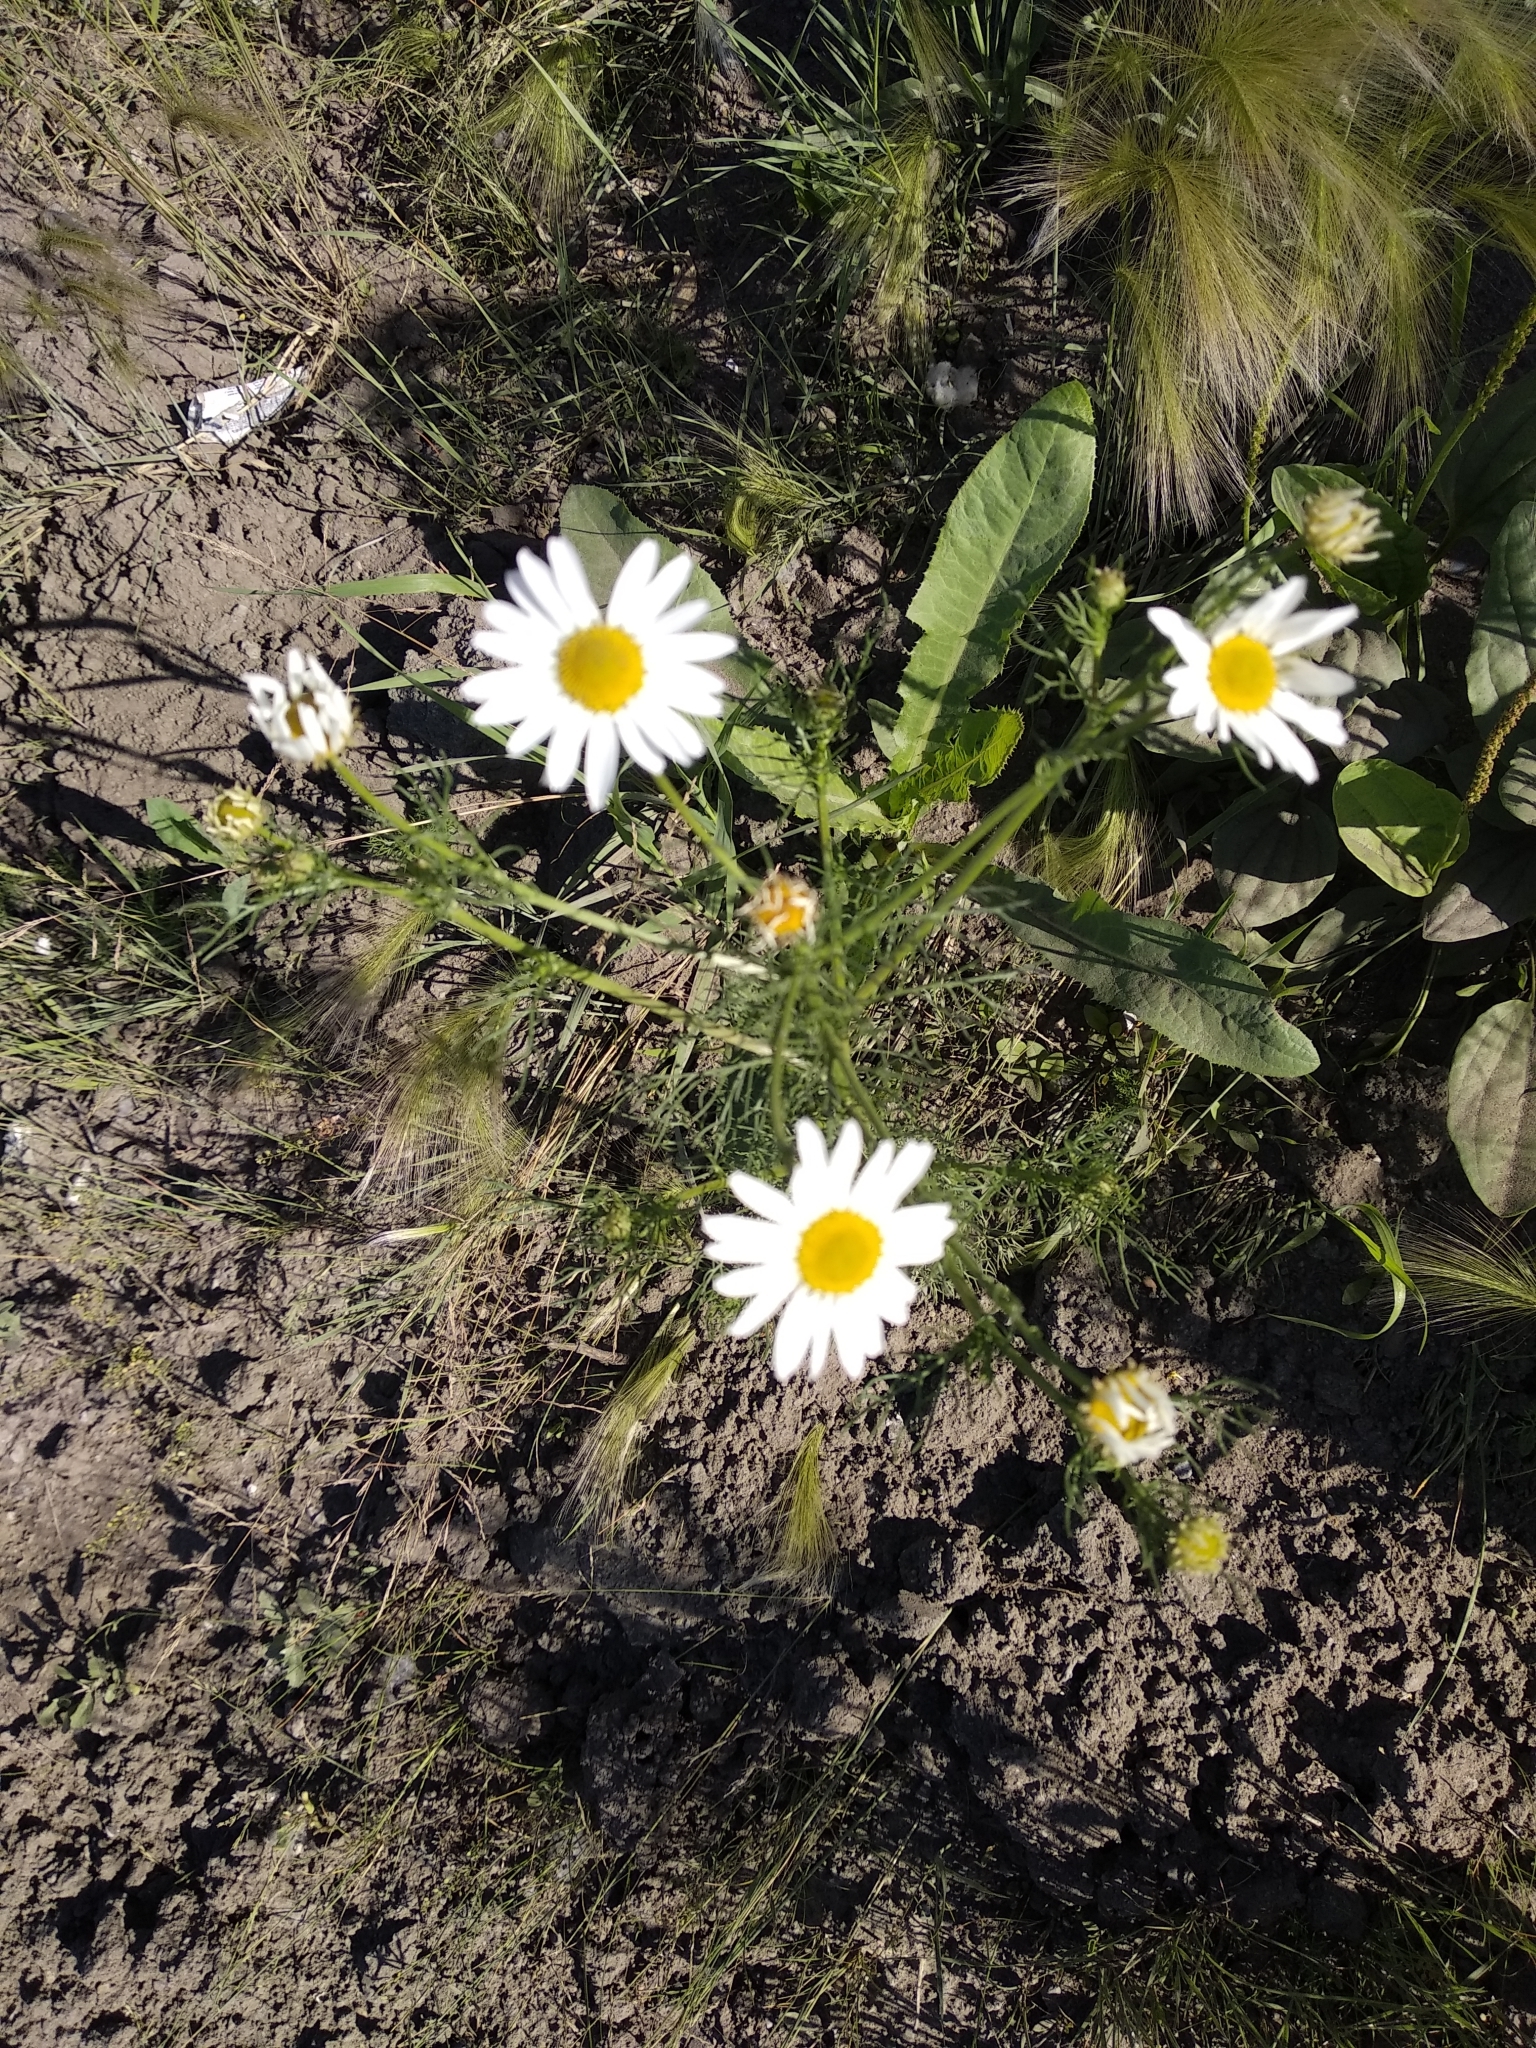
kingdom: Plantae
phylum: Tracheophyta
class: Magnoliopsida
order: Asterales
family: Asteraceae
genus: Tripleurospermum
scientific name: Tripleurospermum inodorum
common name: Scentless mayweed
